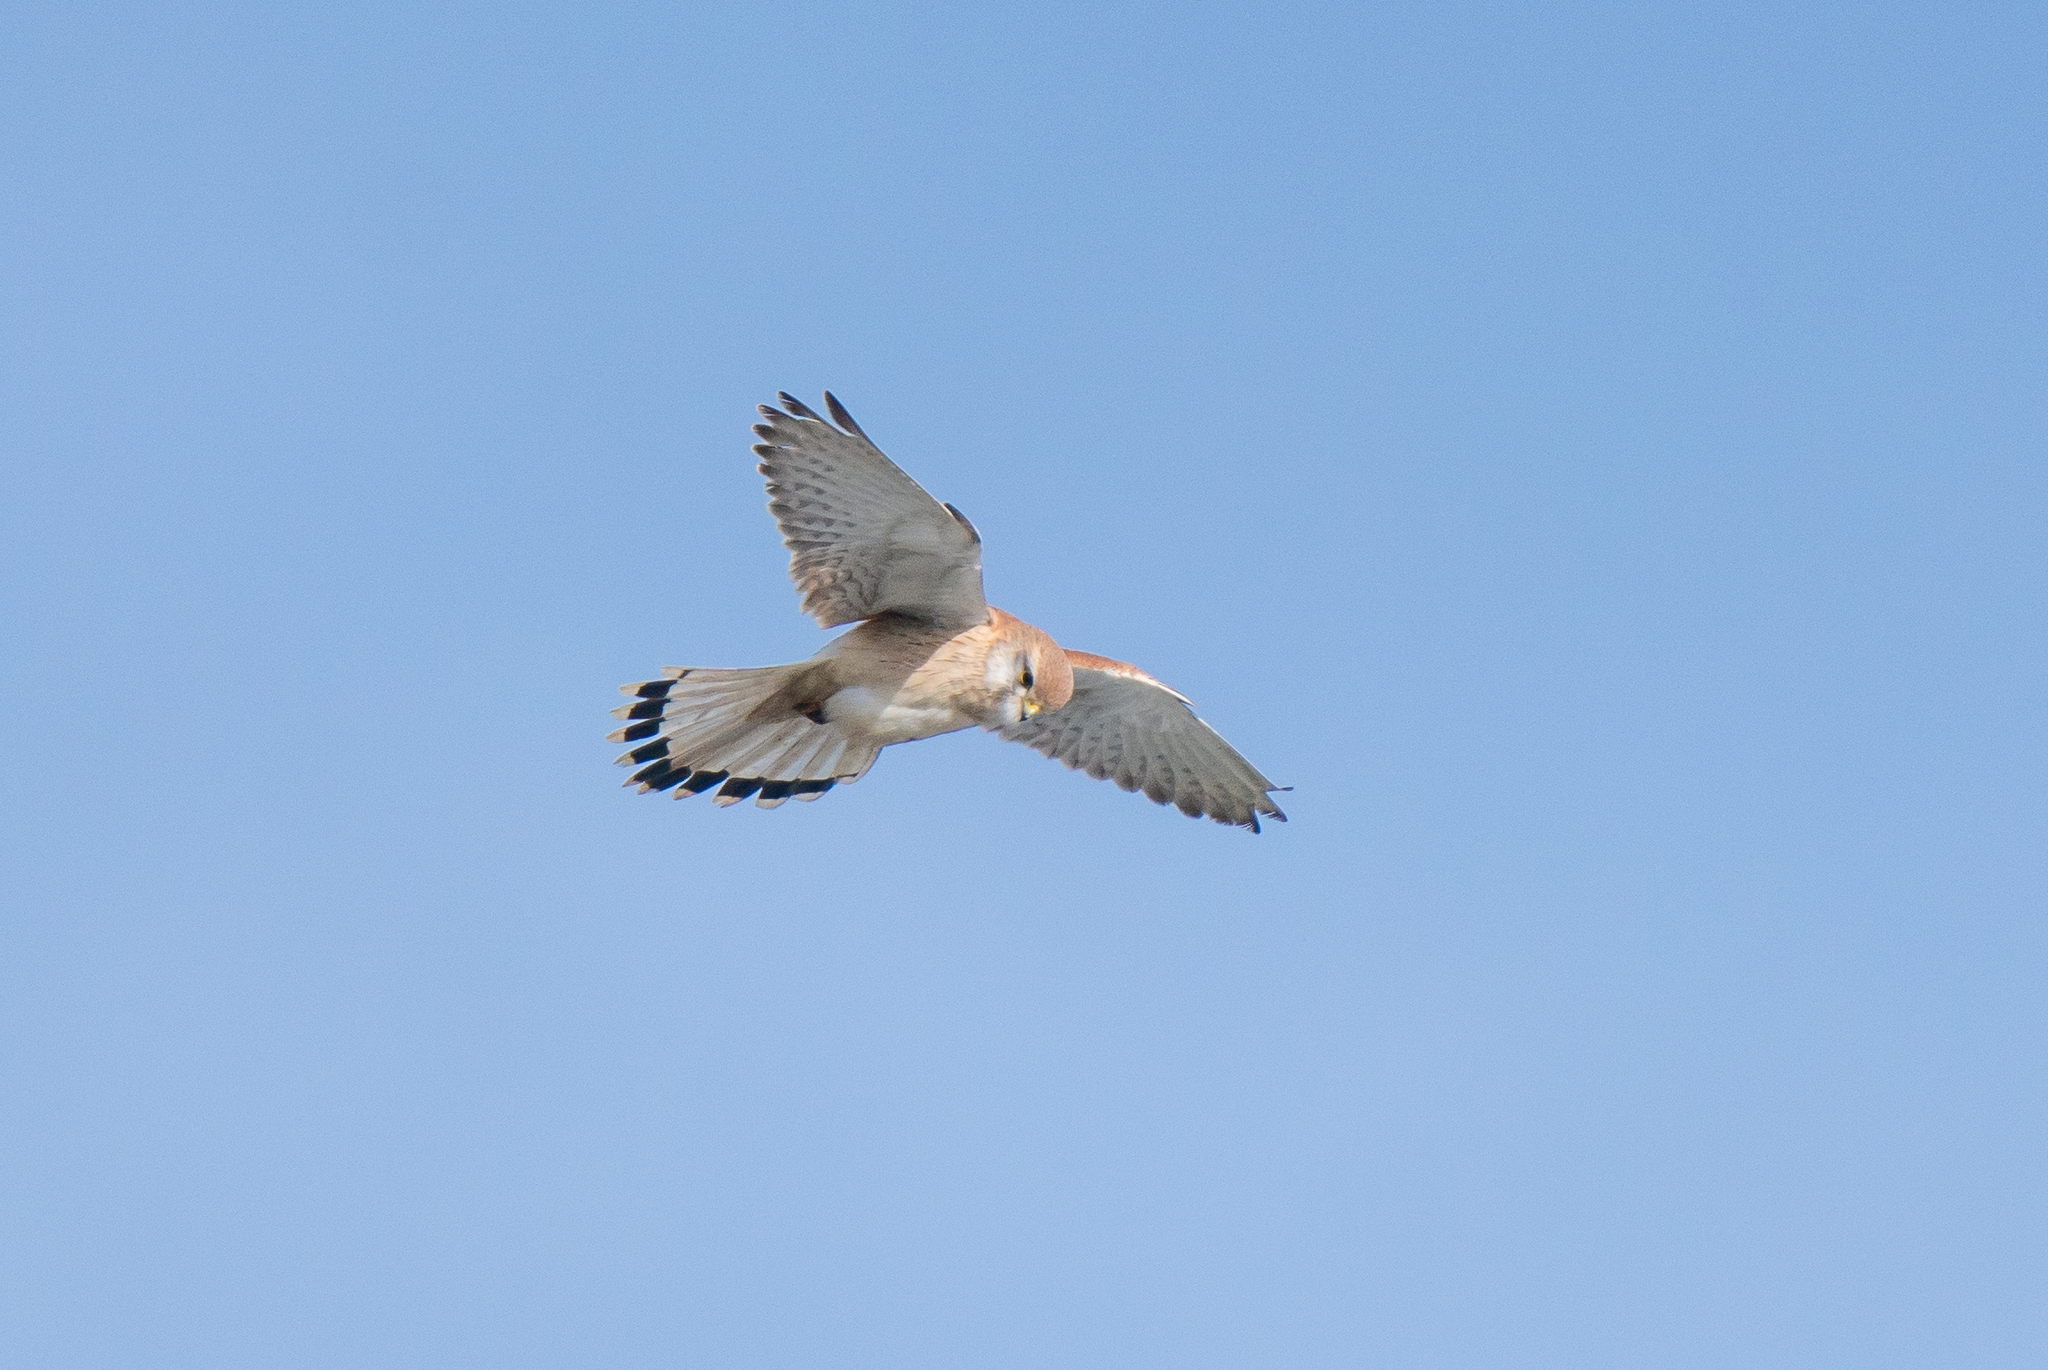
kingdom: Animalia
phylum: Chordata
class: Aves
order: Falconiformes
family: Falconidae
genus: Falco
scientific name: Falco cenchroides
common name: Nankeen kestrel
